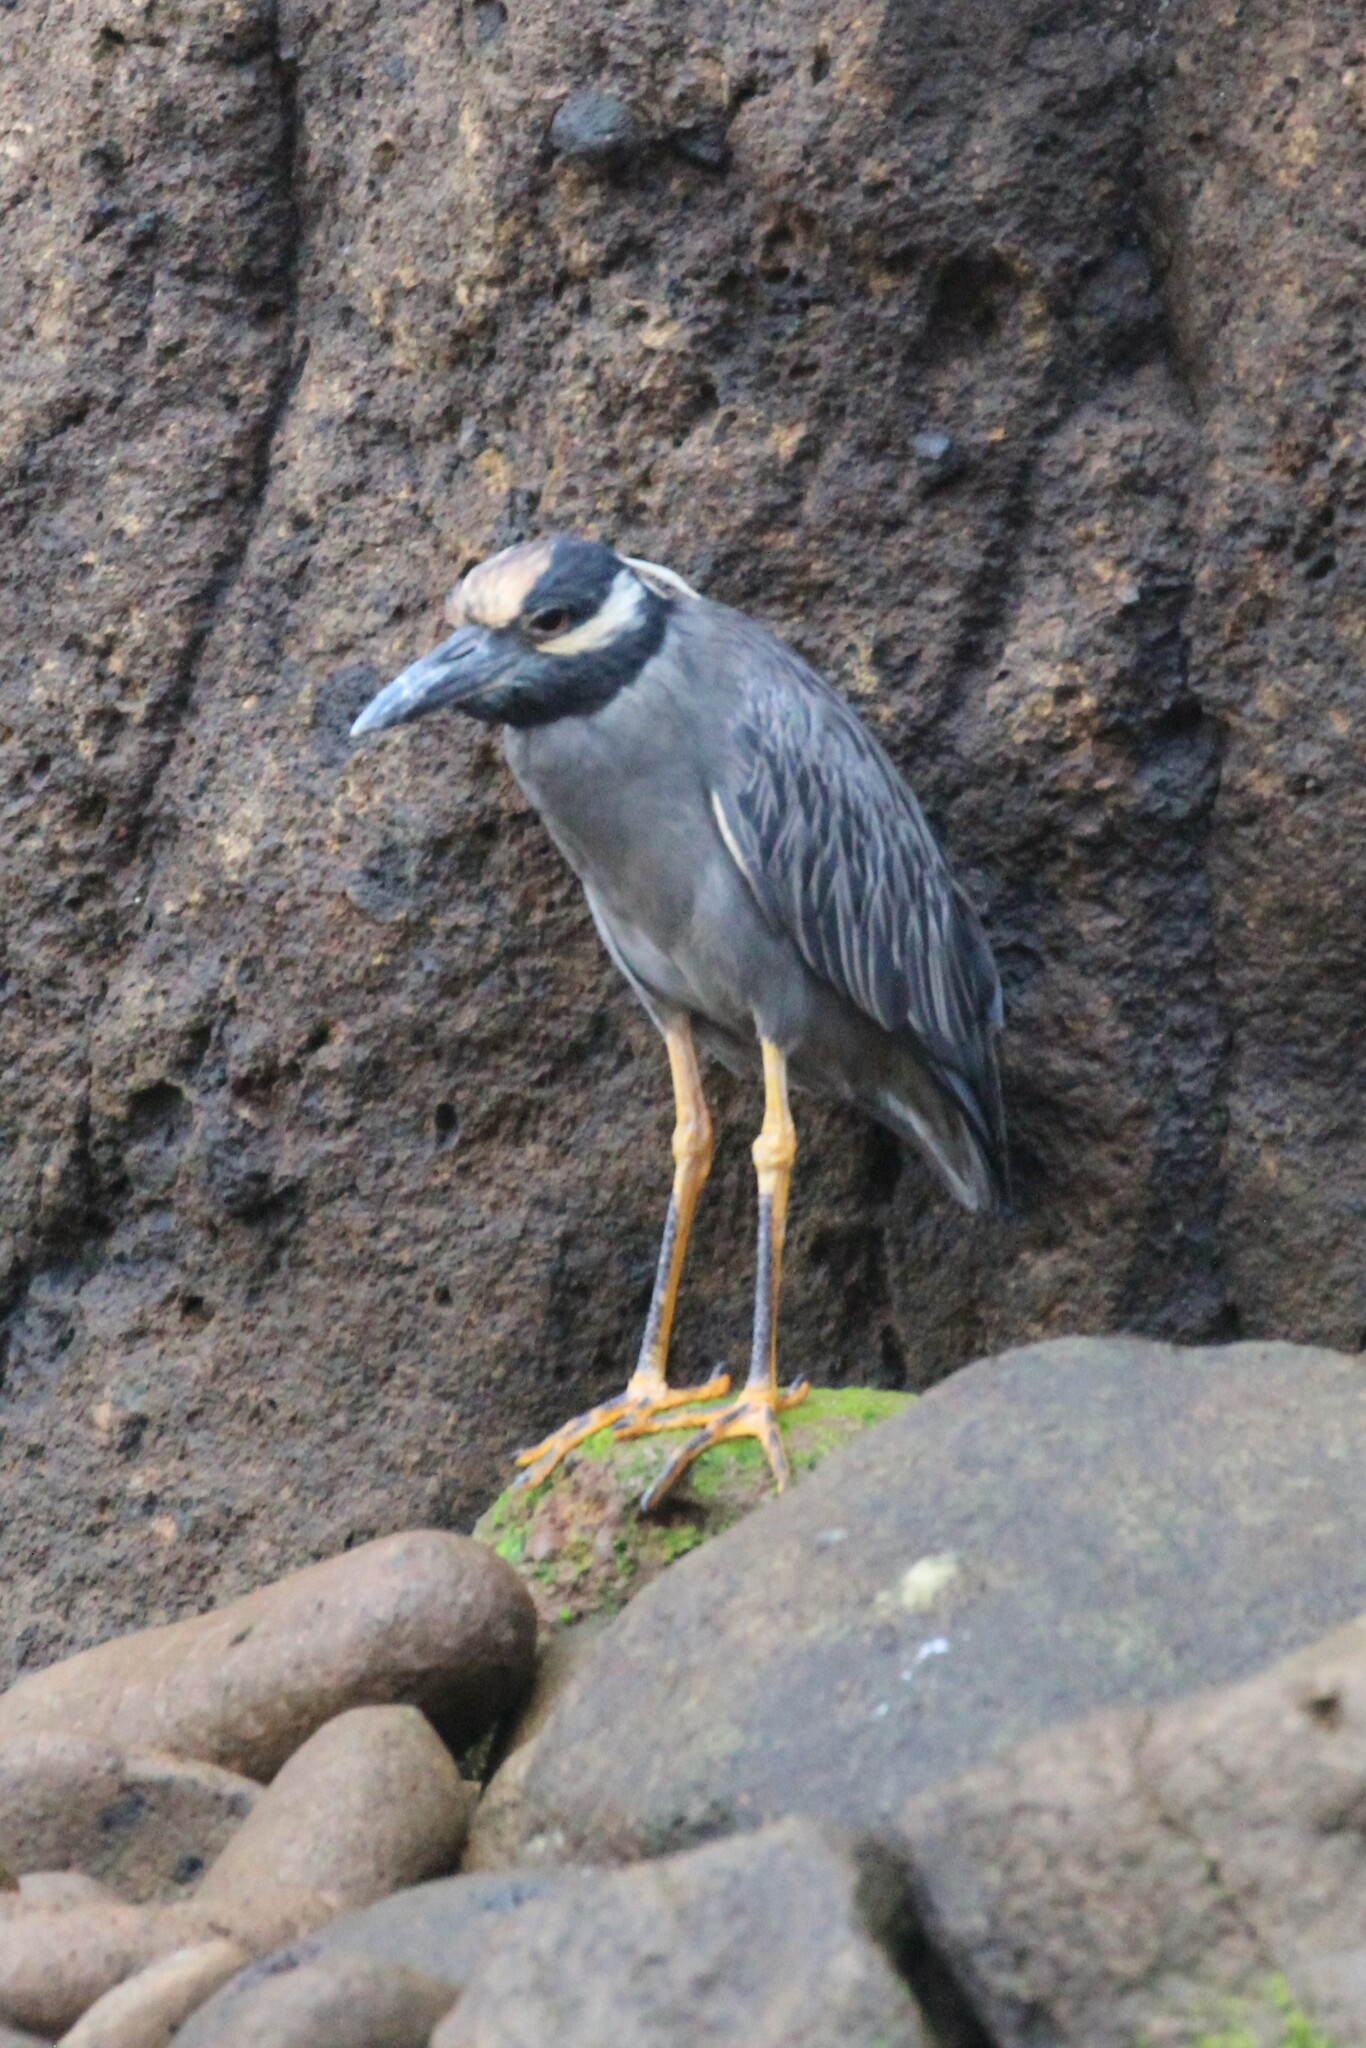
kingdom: Animalia
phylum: Chordata
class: Aves
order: Pelecaniformes
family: Ardeidae
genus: Nyctanassa
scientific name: Nyctanassa violacea
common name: Yellow-crowned night heron
